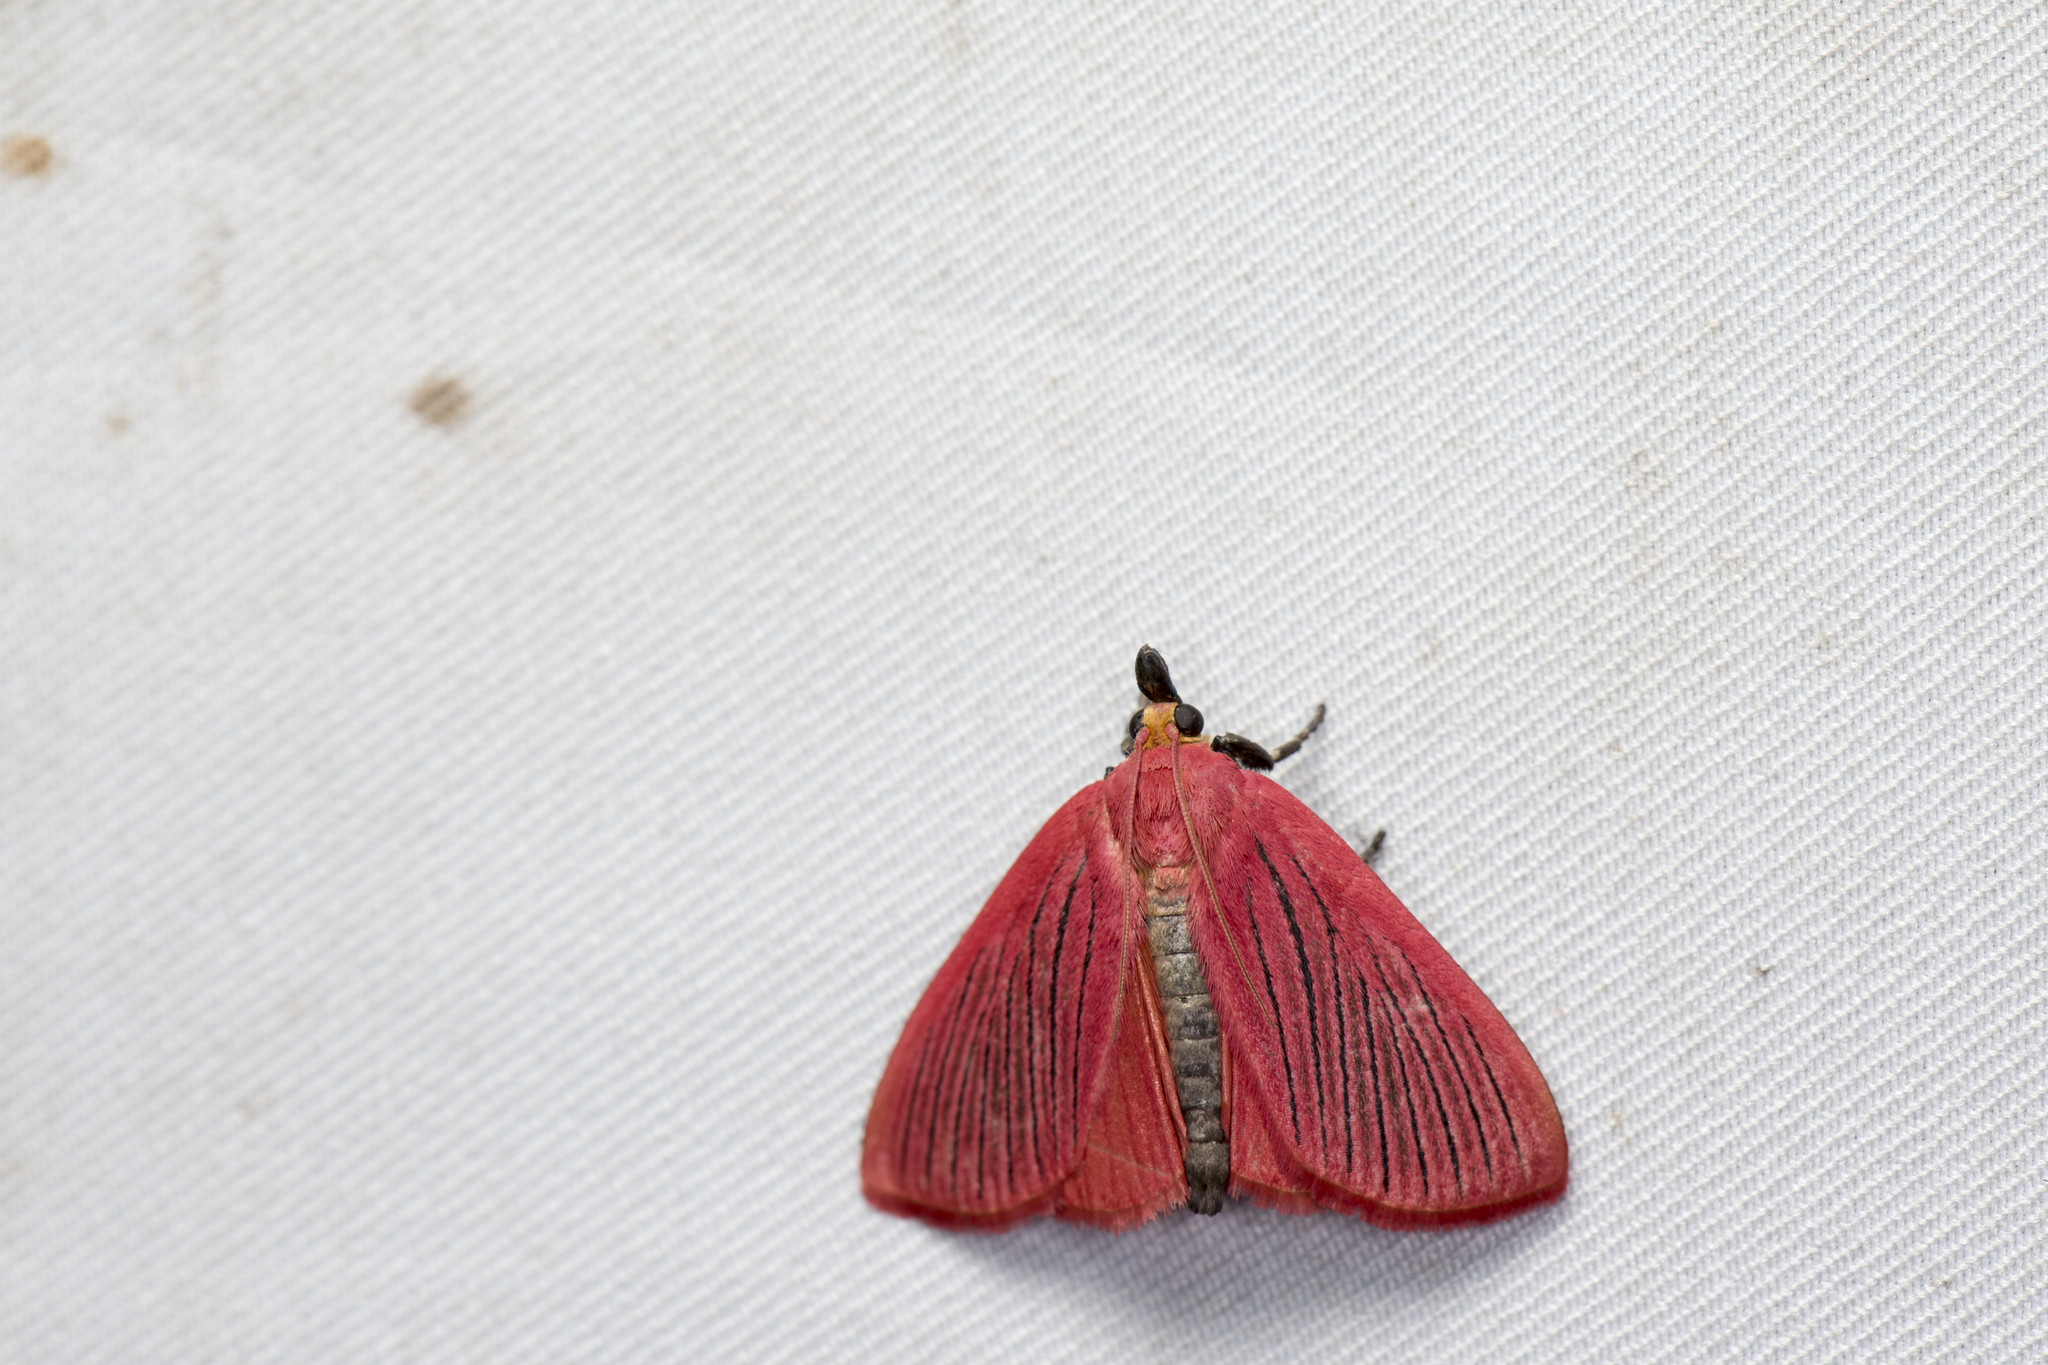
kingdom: Animalia
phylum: Arthropoda
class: Insecta
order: Lepidoptera
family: Pyralidae
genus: Arctioblepsis
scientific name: Arctioblepsis rubida
